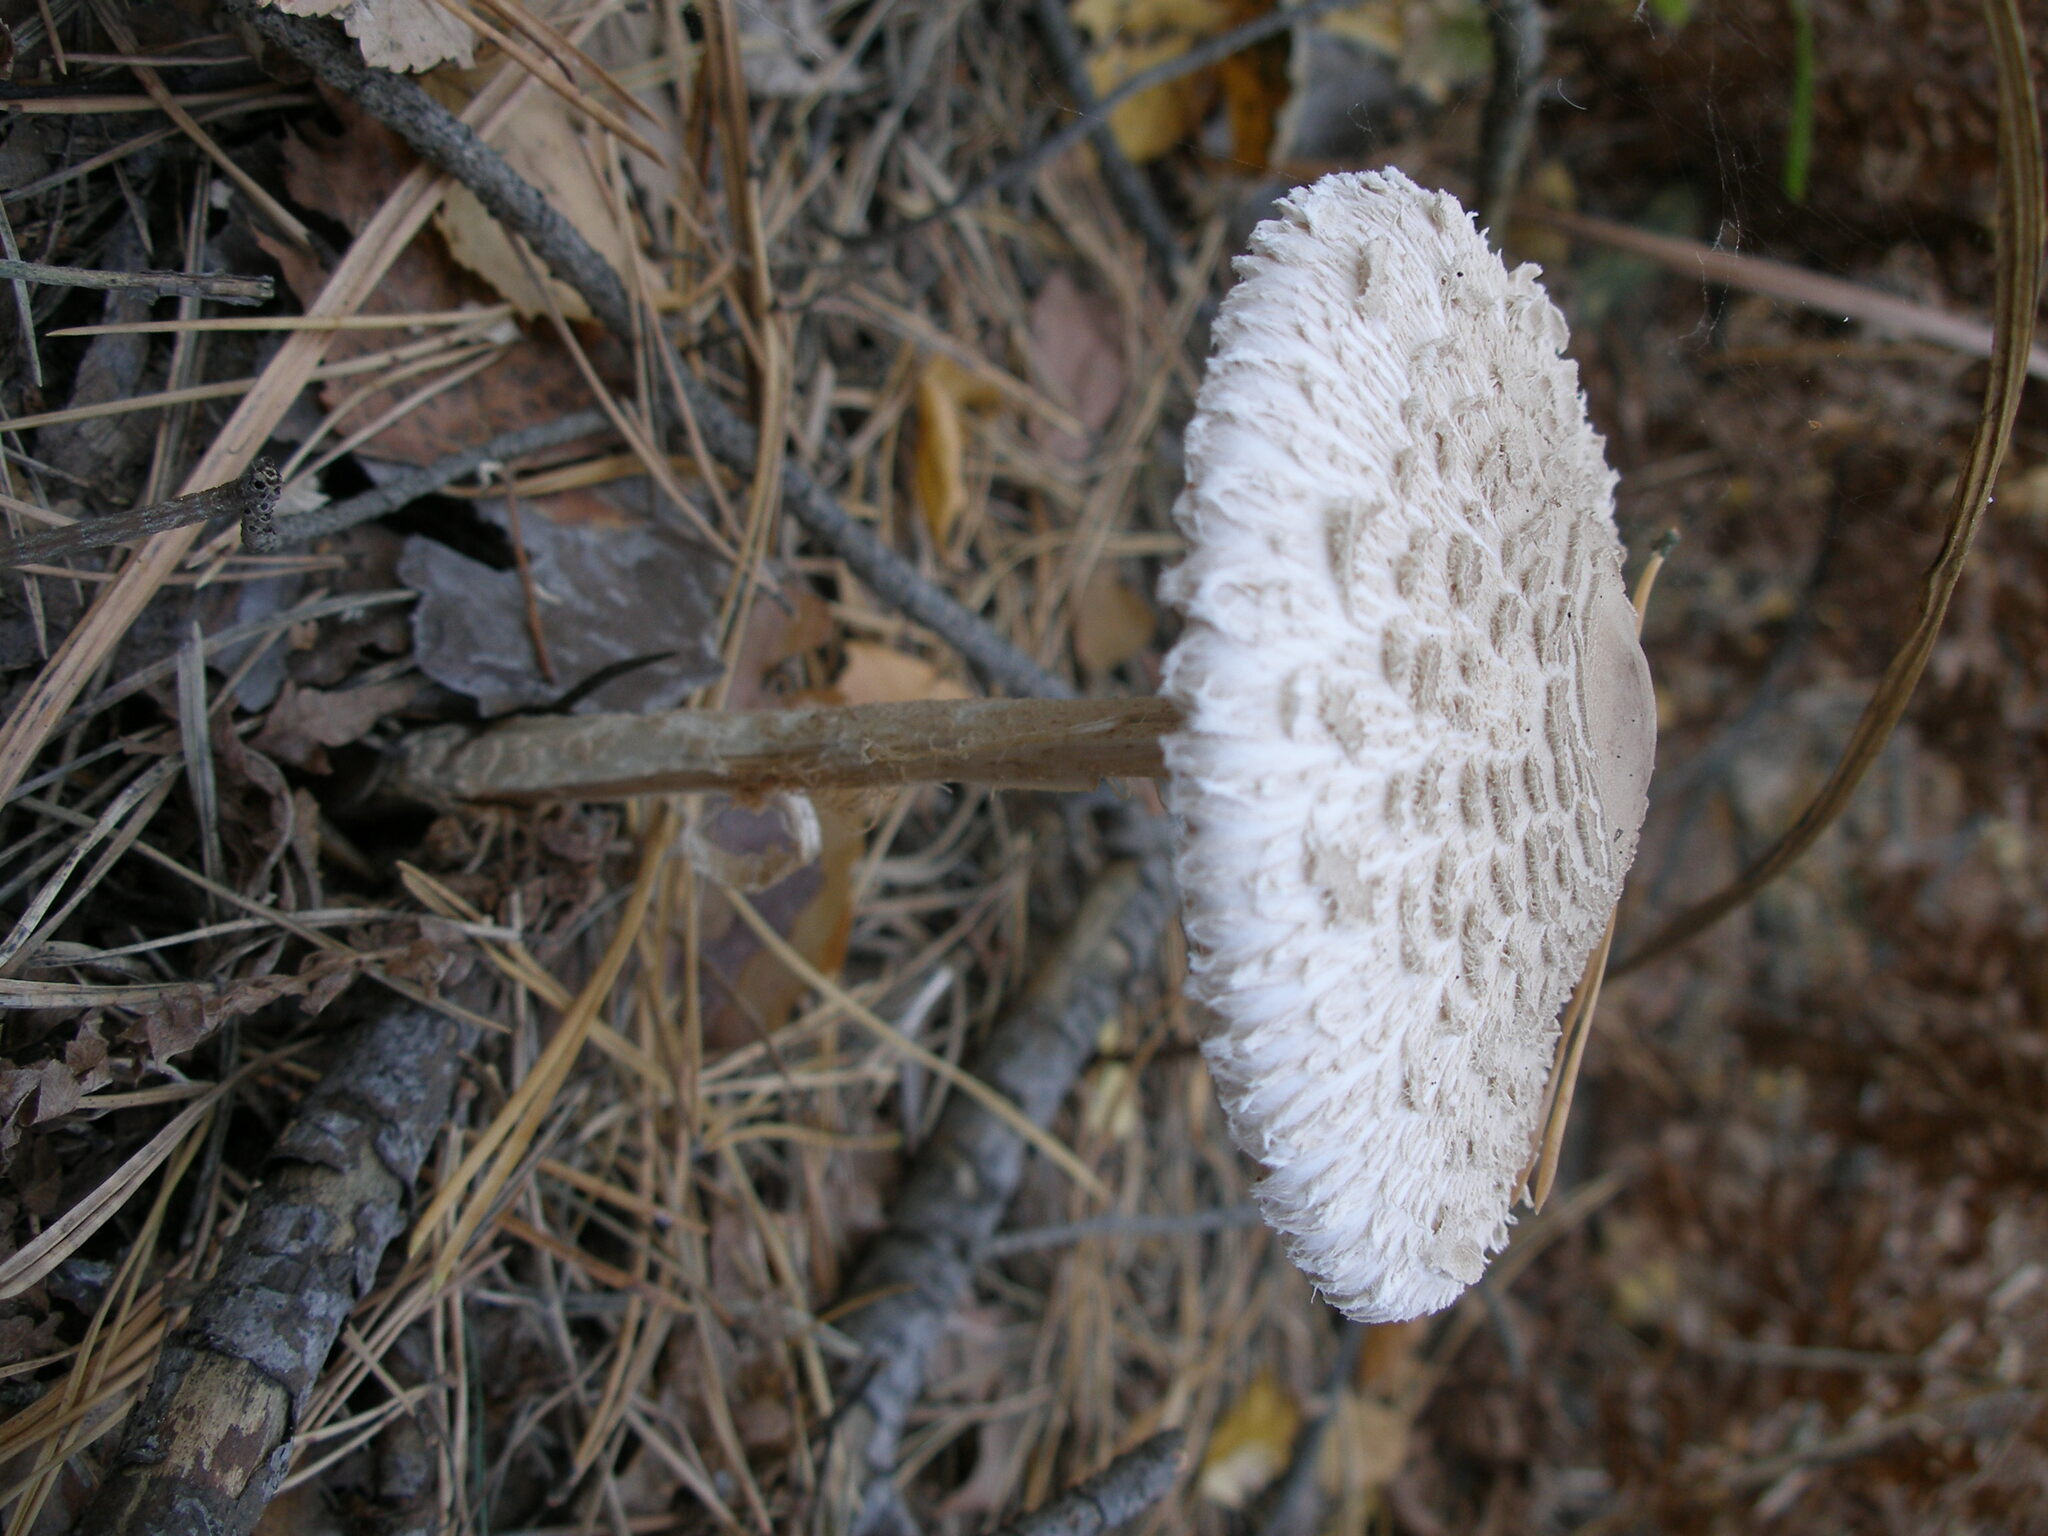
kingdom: Fungi
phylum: Basidiomycota
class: Agaricomycetes
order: Agaricales
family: Agaricaceae
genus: Macrolepiota
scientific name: Macrolepiota procera
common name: Parasol
